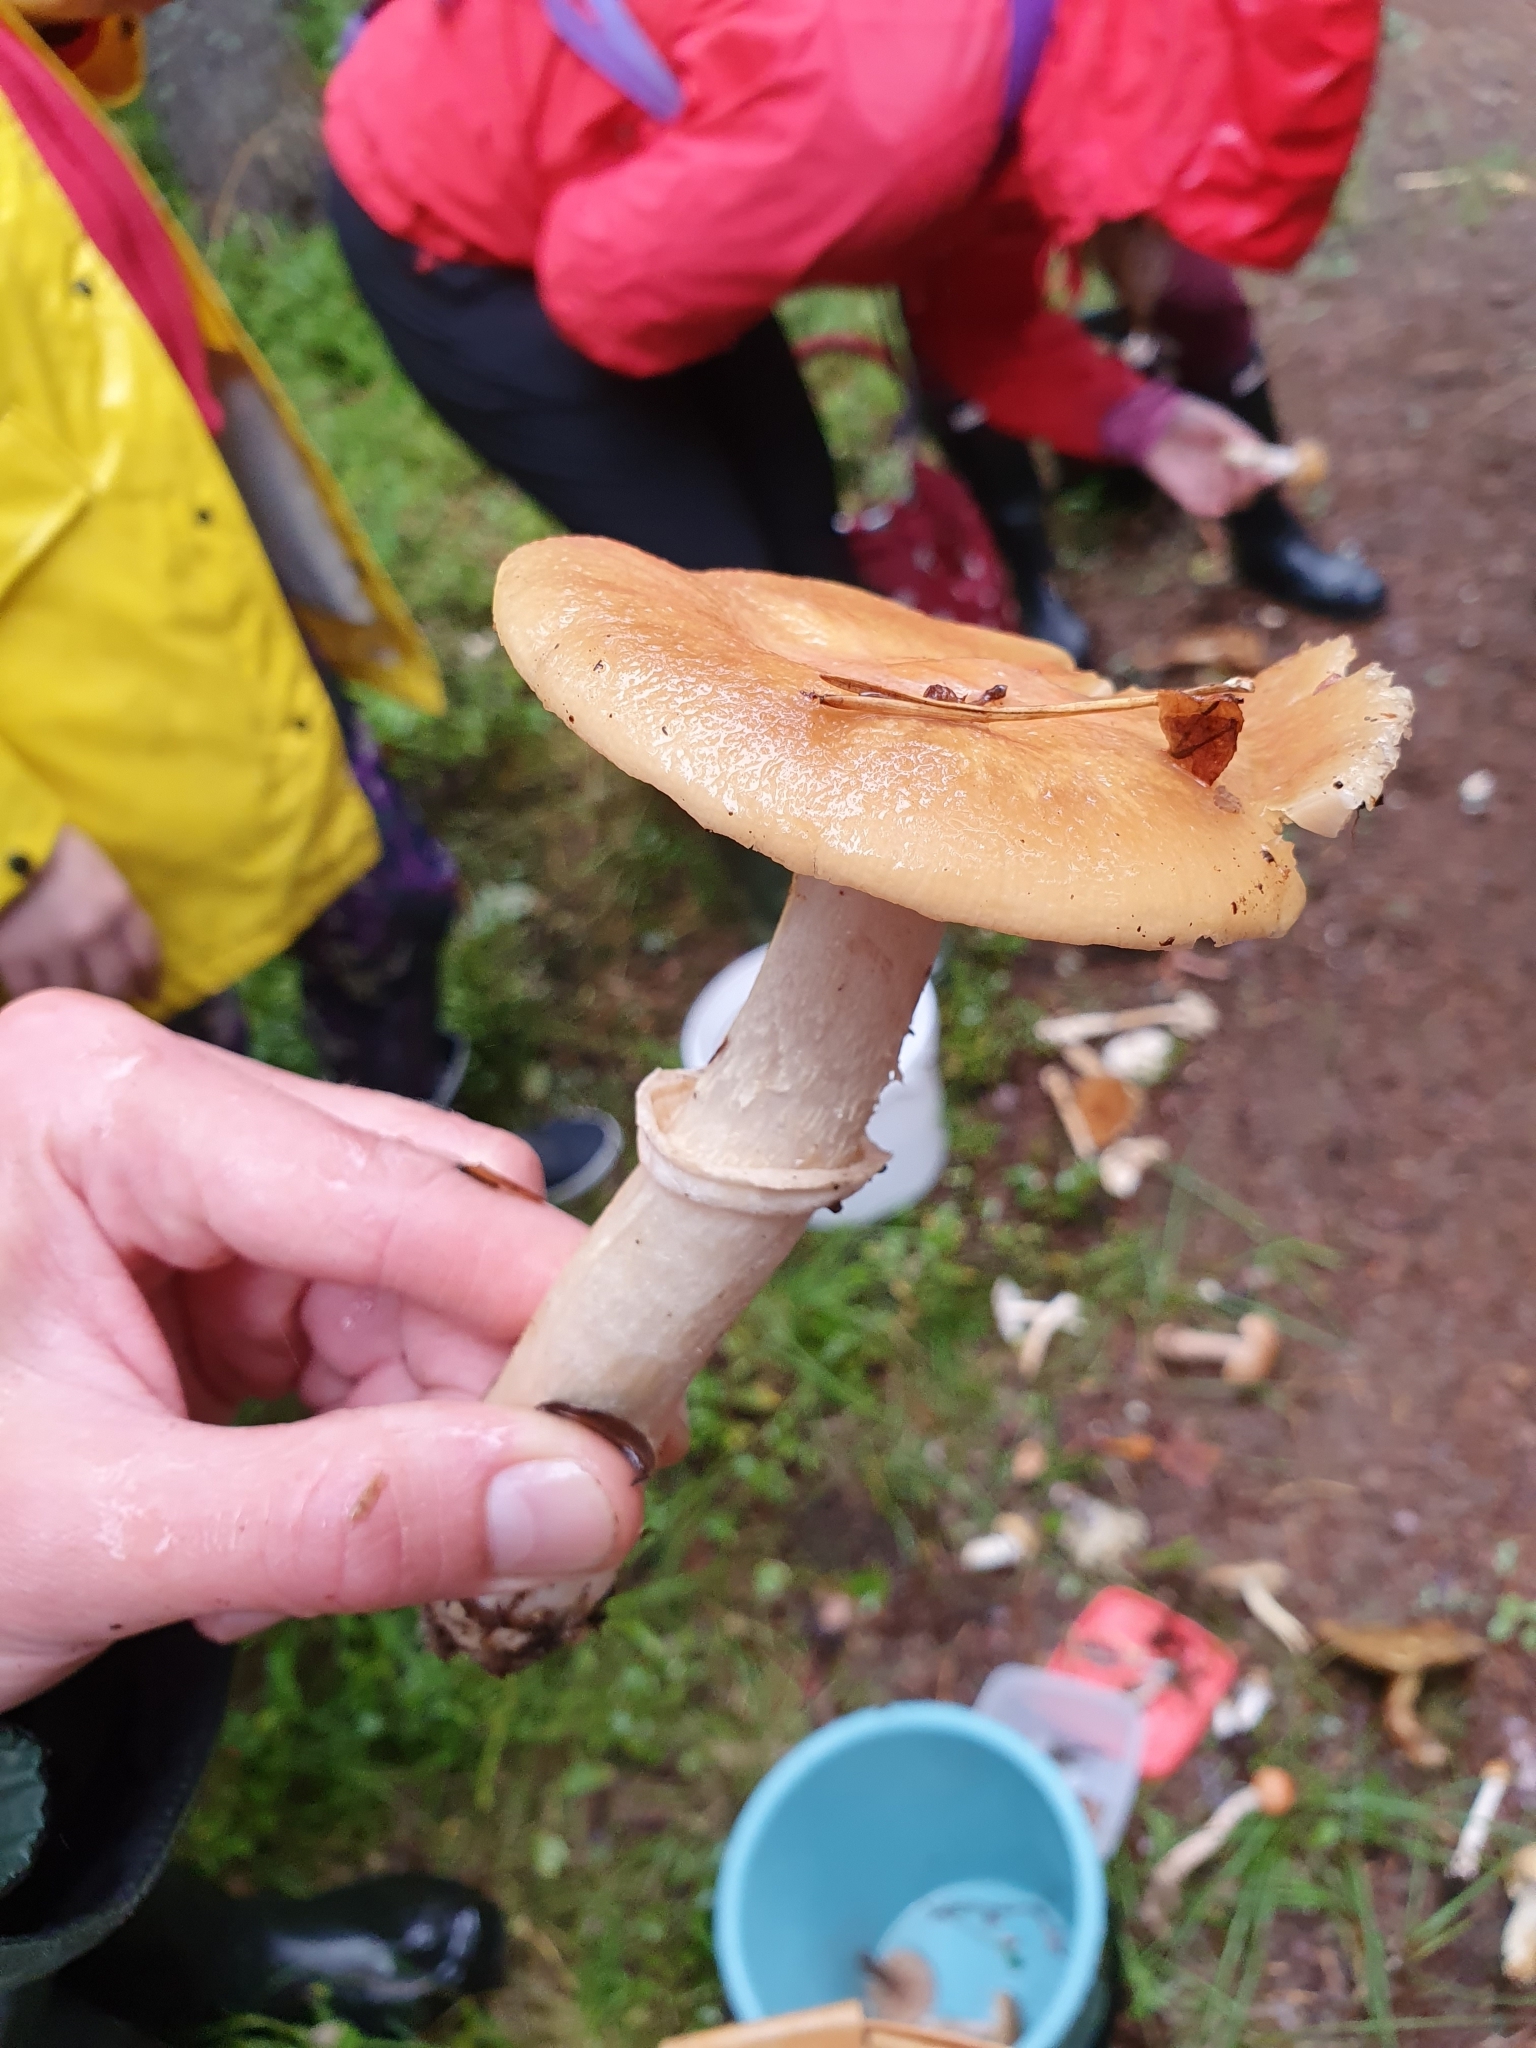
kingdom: Fungi
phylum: Basidiomycota
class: Agaricomycetes
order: Agaricales
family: Cortinariaceae
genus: Cortinarius
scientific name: Cortinarius caperatus
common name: The gypsy
